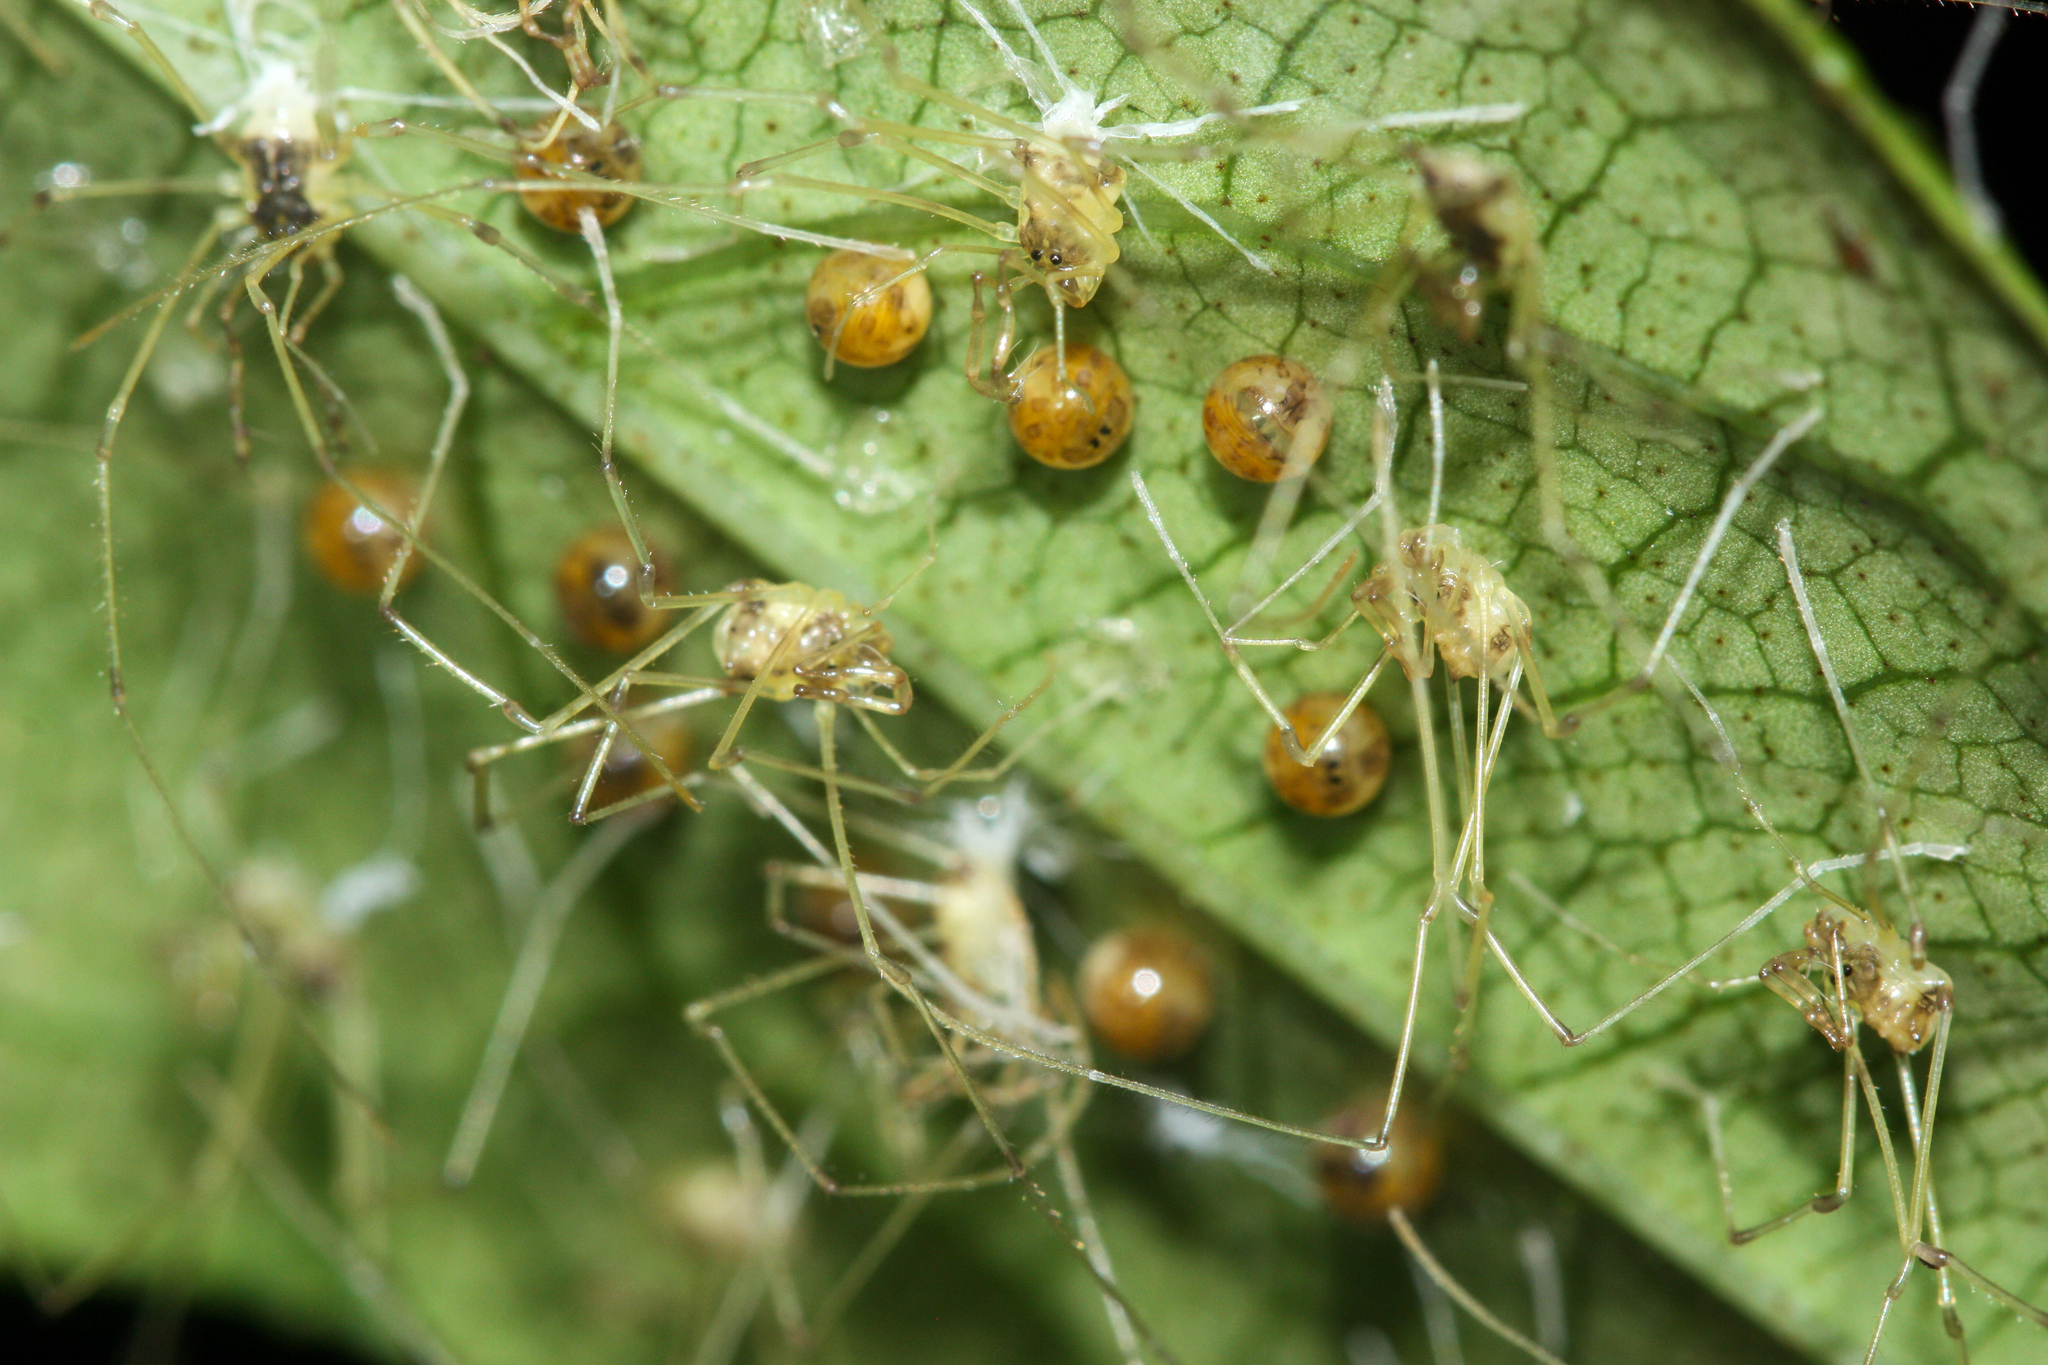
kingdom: Animalia
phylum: Arthropoda
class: Arachnida
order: Opiliones
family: Cranaidae
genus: Ventrivomer
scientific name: Ventrivomer ancyrophorus
